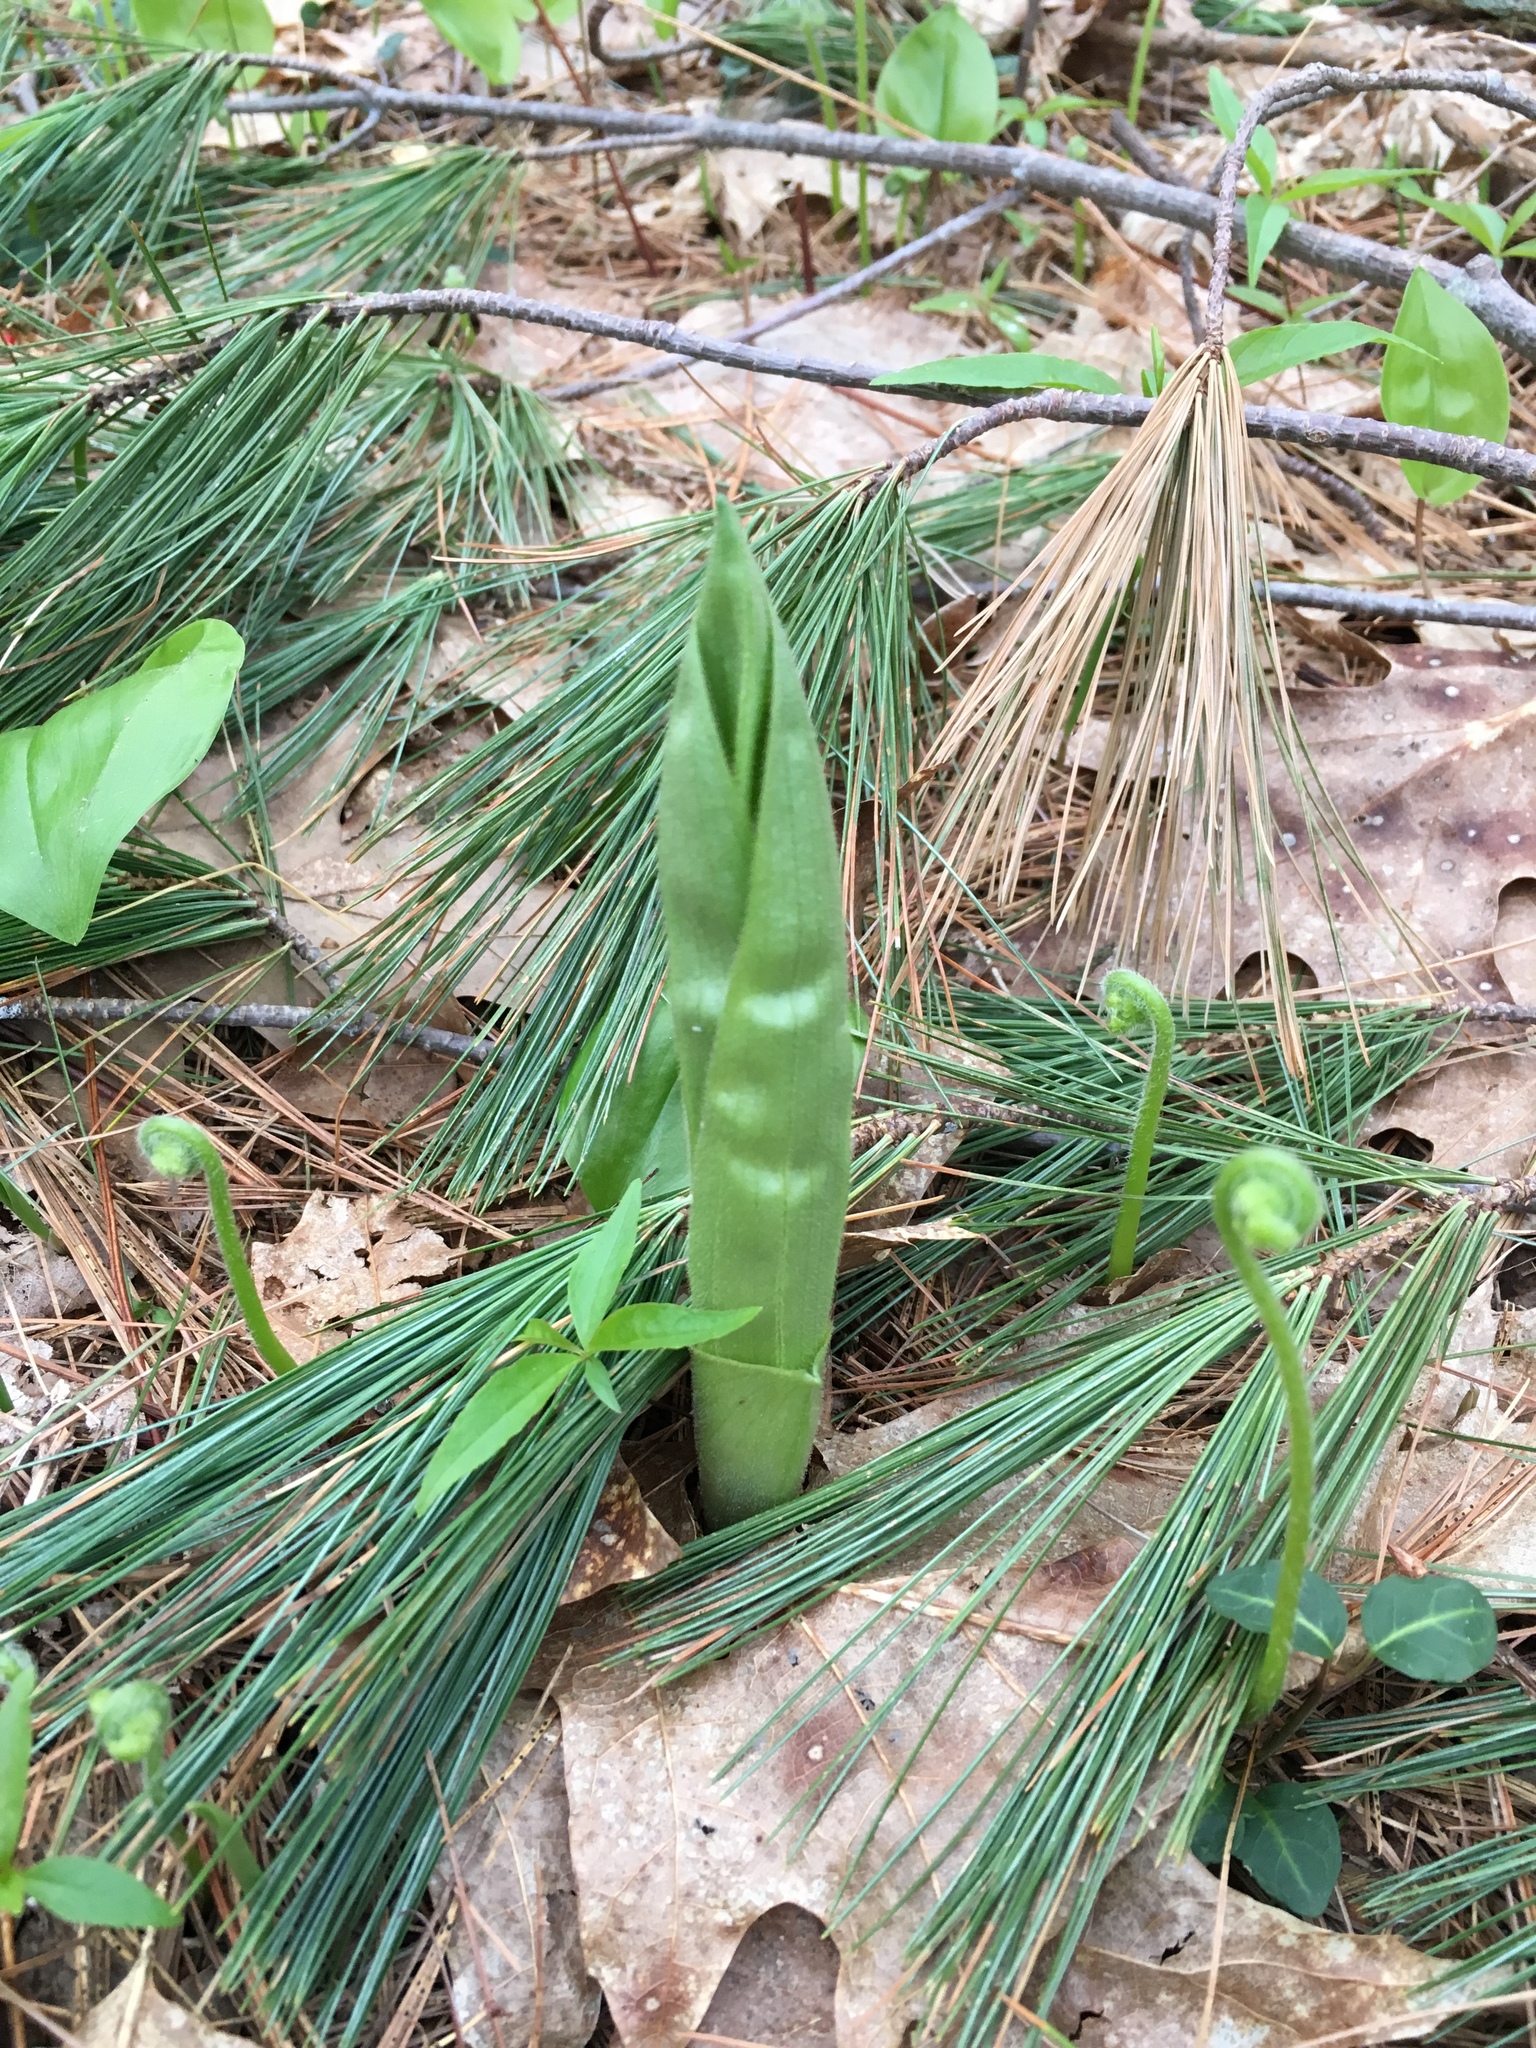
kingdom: Plantae
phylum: Tracheophyta
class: Liliopsida
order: Alismatales
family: Araceae
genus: Arisaema
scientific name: Arisaema triphyllum
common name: Jack-in-the-pulpit
